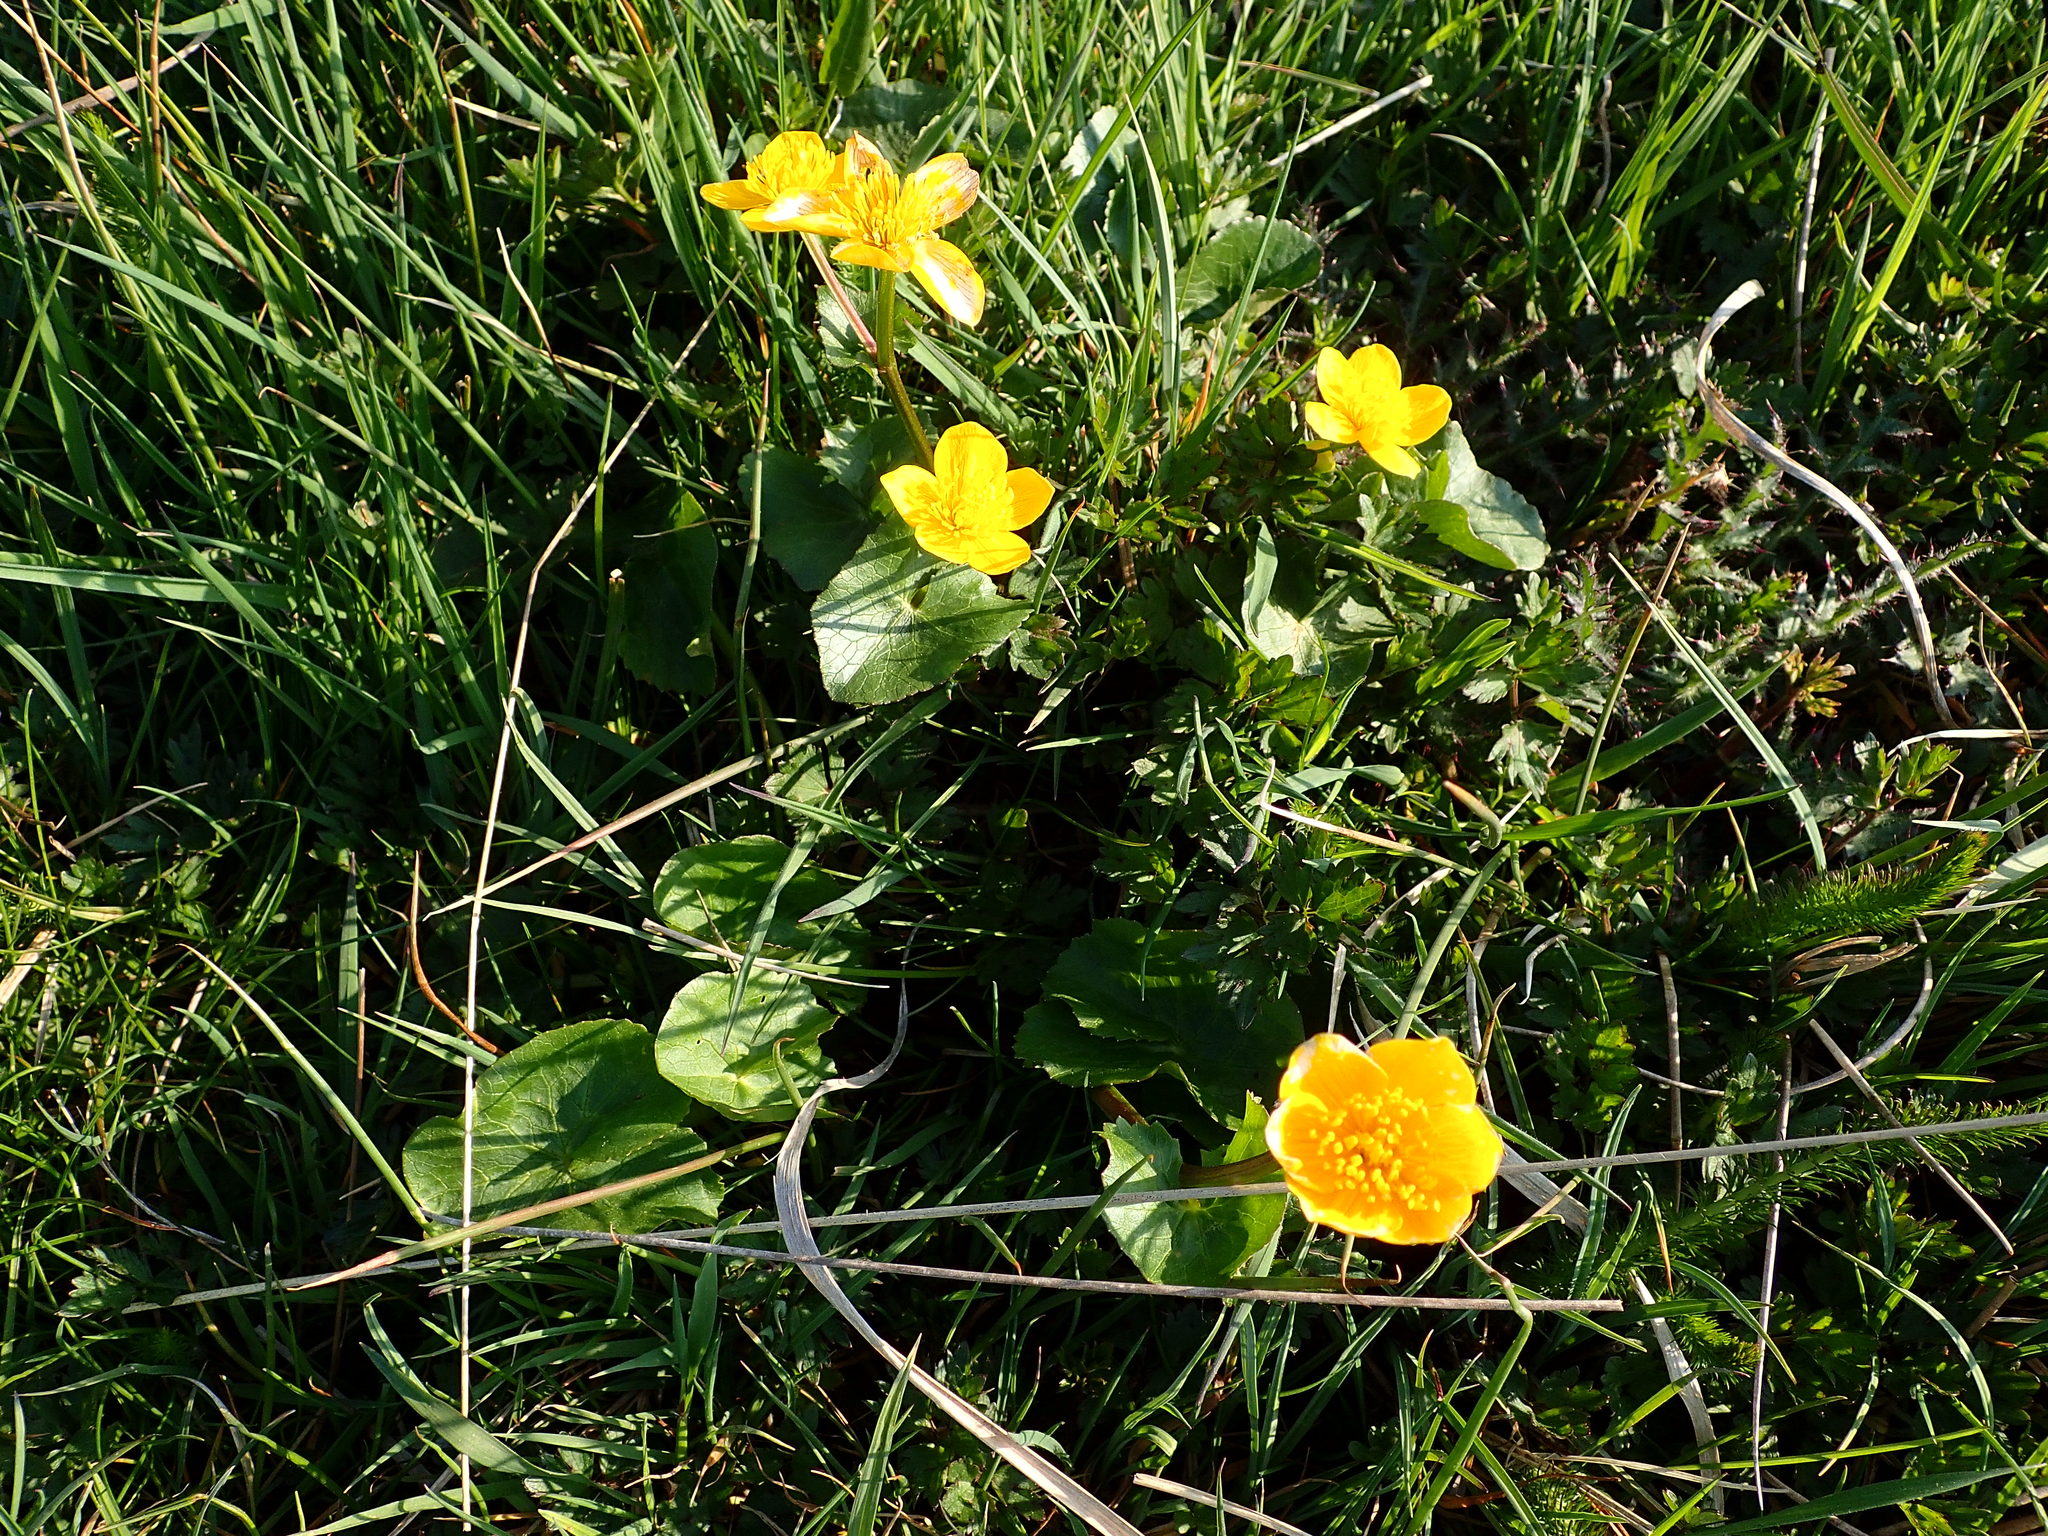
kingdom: Plantae
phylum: Tracheophyta
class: Magnoliopsida
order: Ranunculales
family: Ranunculaceae
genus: Caltha
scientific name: Caltha palustris
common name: Marsh marigold
